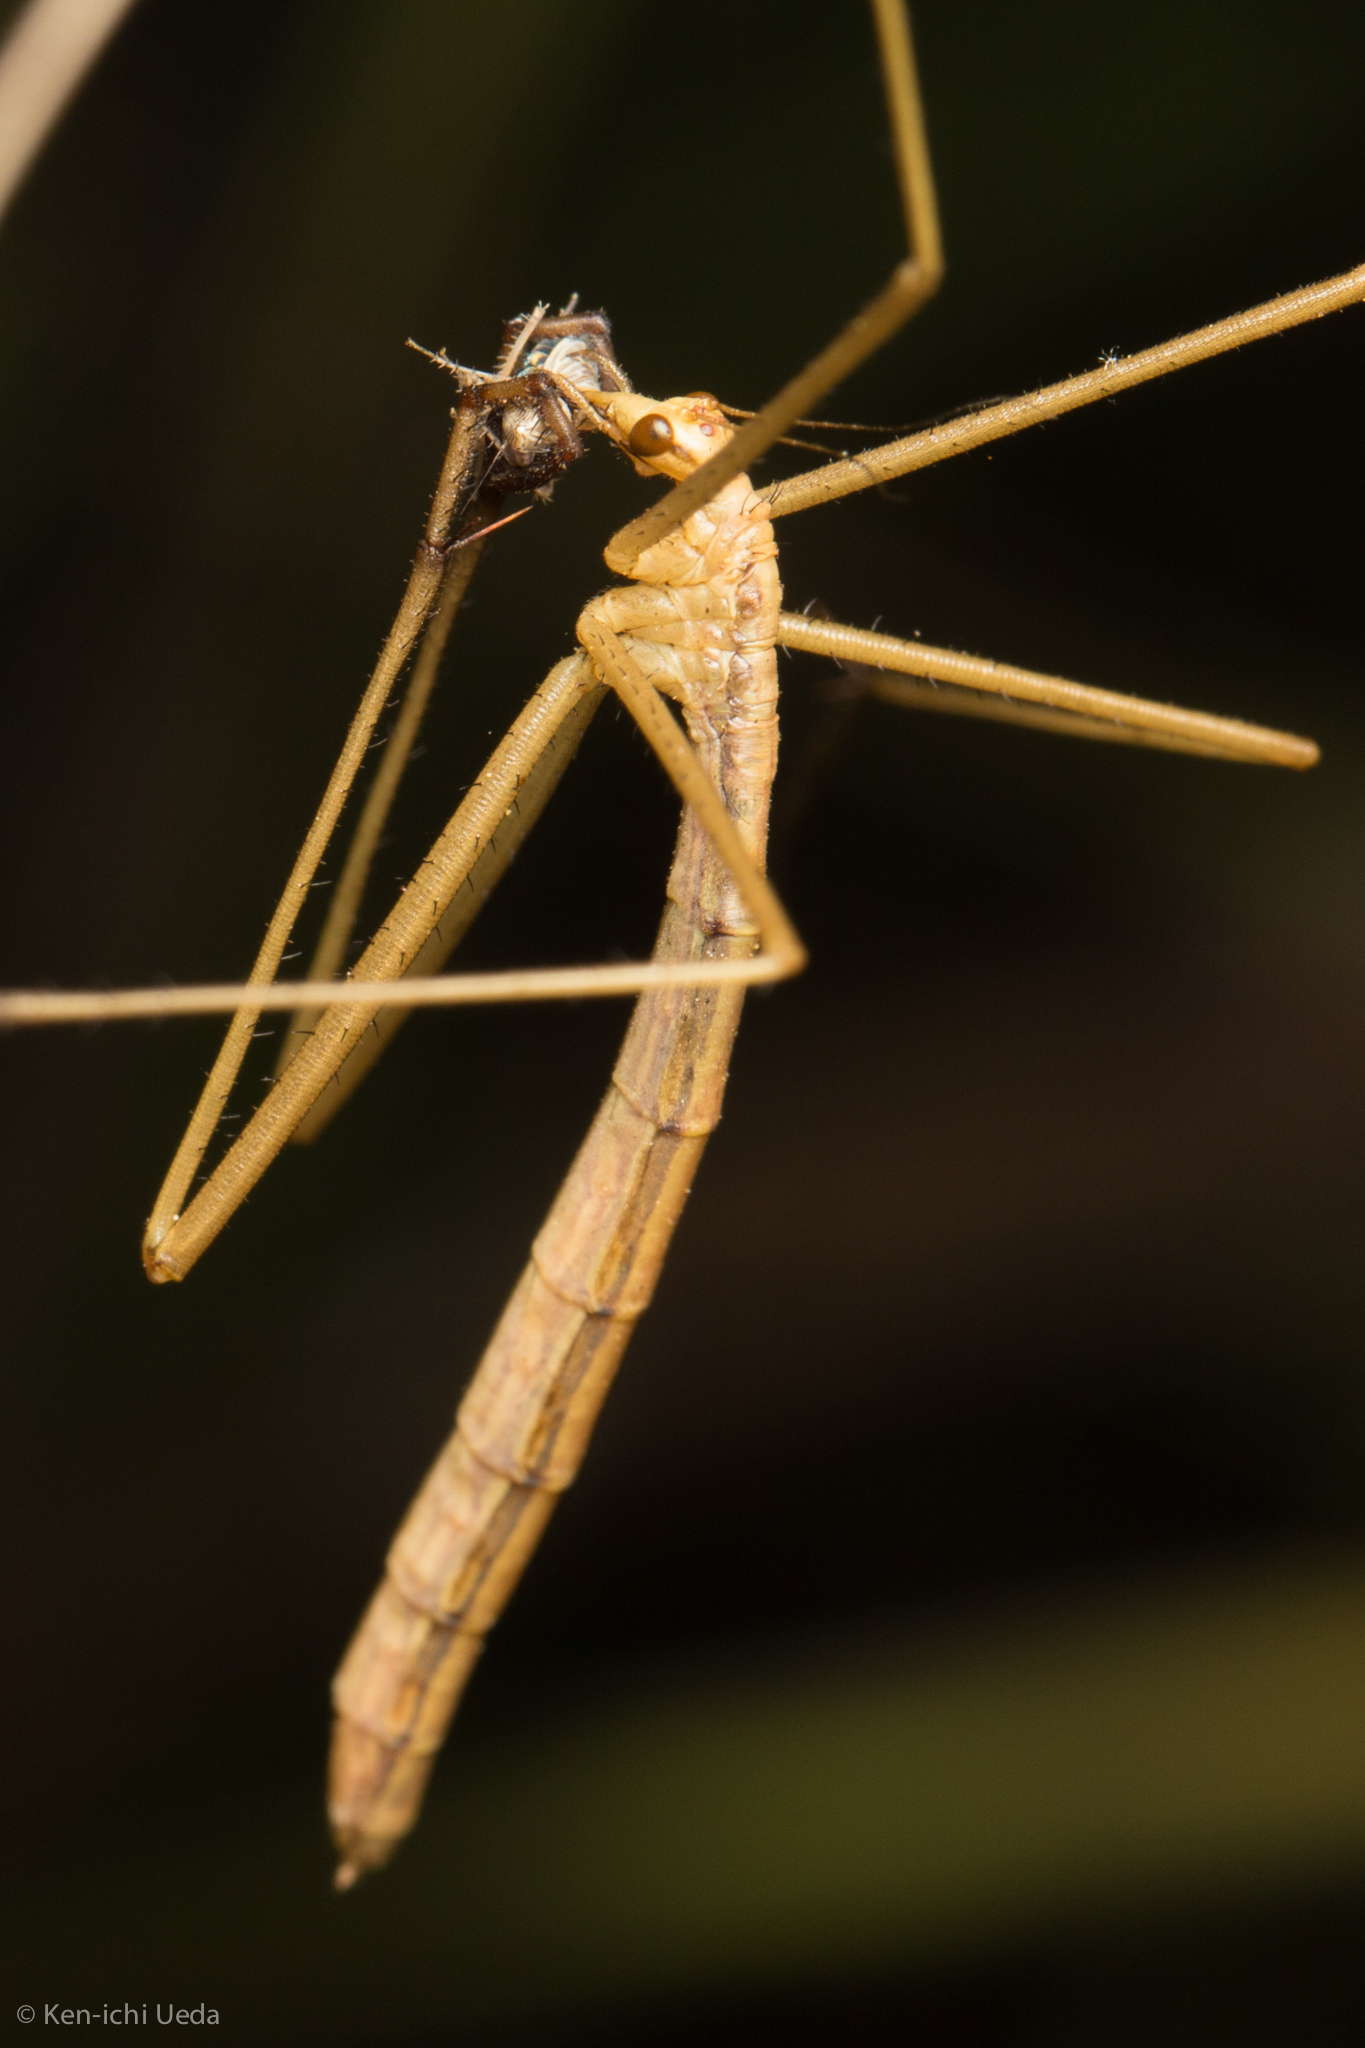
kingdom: Animalia
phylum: Arthropoda
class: Insecta
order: Mecoptera
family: Bittacidae
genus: Apterobittacus
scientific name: Apterobittacus apterus
